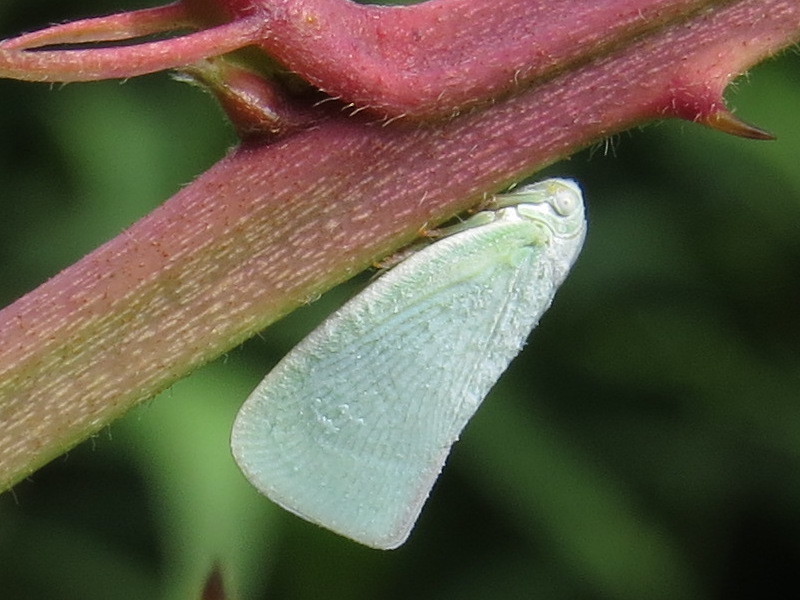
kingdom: Animalia
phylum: Arthropoda
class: Insecta
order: Hemiptera
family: Flatidae
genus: Flatormenis
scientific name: Flatormenis proxima
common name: Northern flatid planthopper
